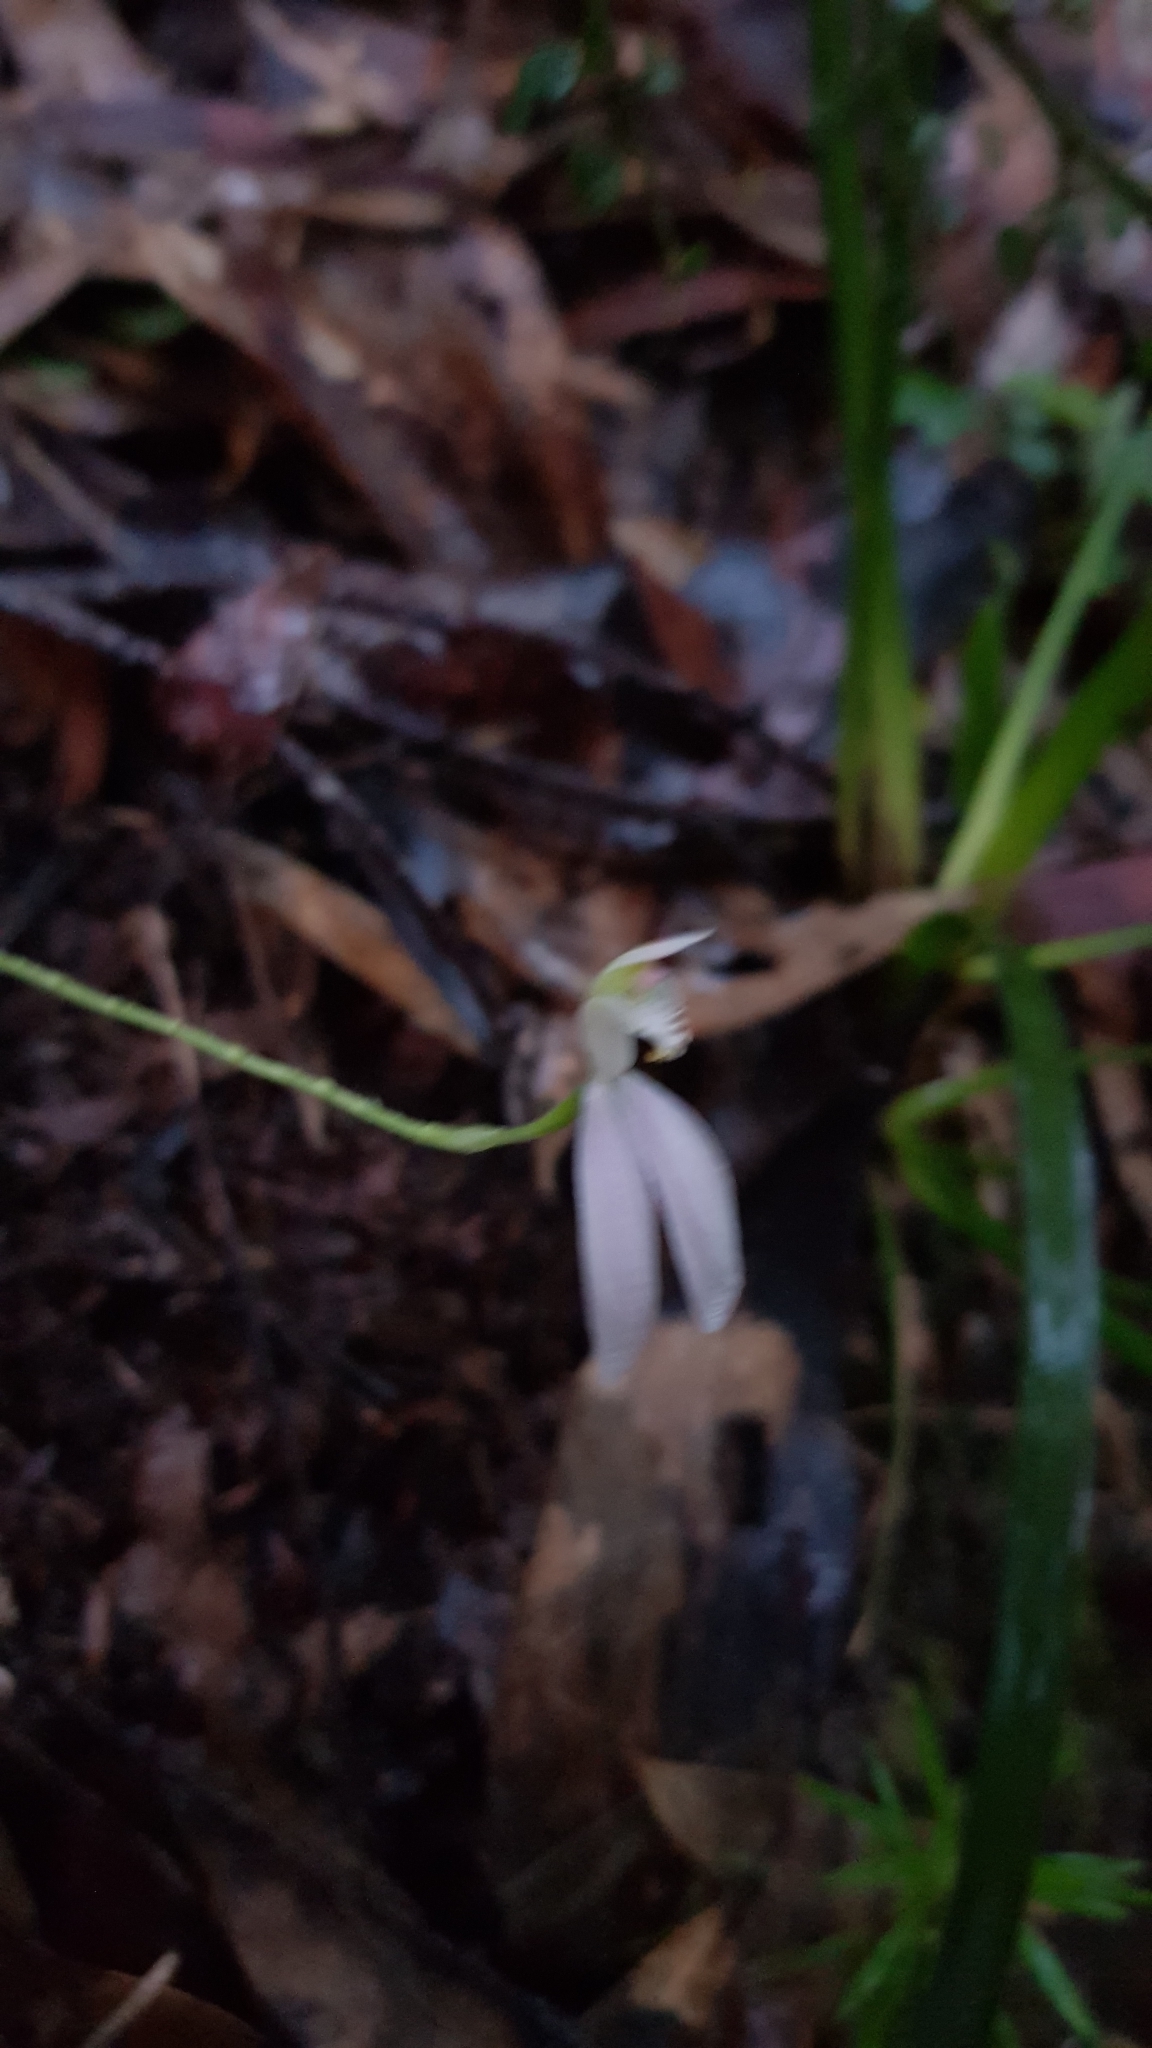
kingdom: Plantae
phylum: Tracheophyta
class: Liliopsida
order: Asparagales
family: Orchidaceae
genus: Caladenia
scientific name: Caladenia catenata
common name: White caladenia
